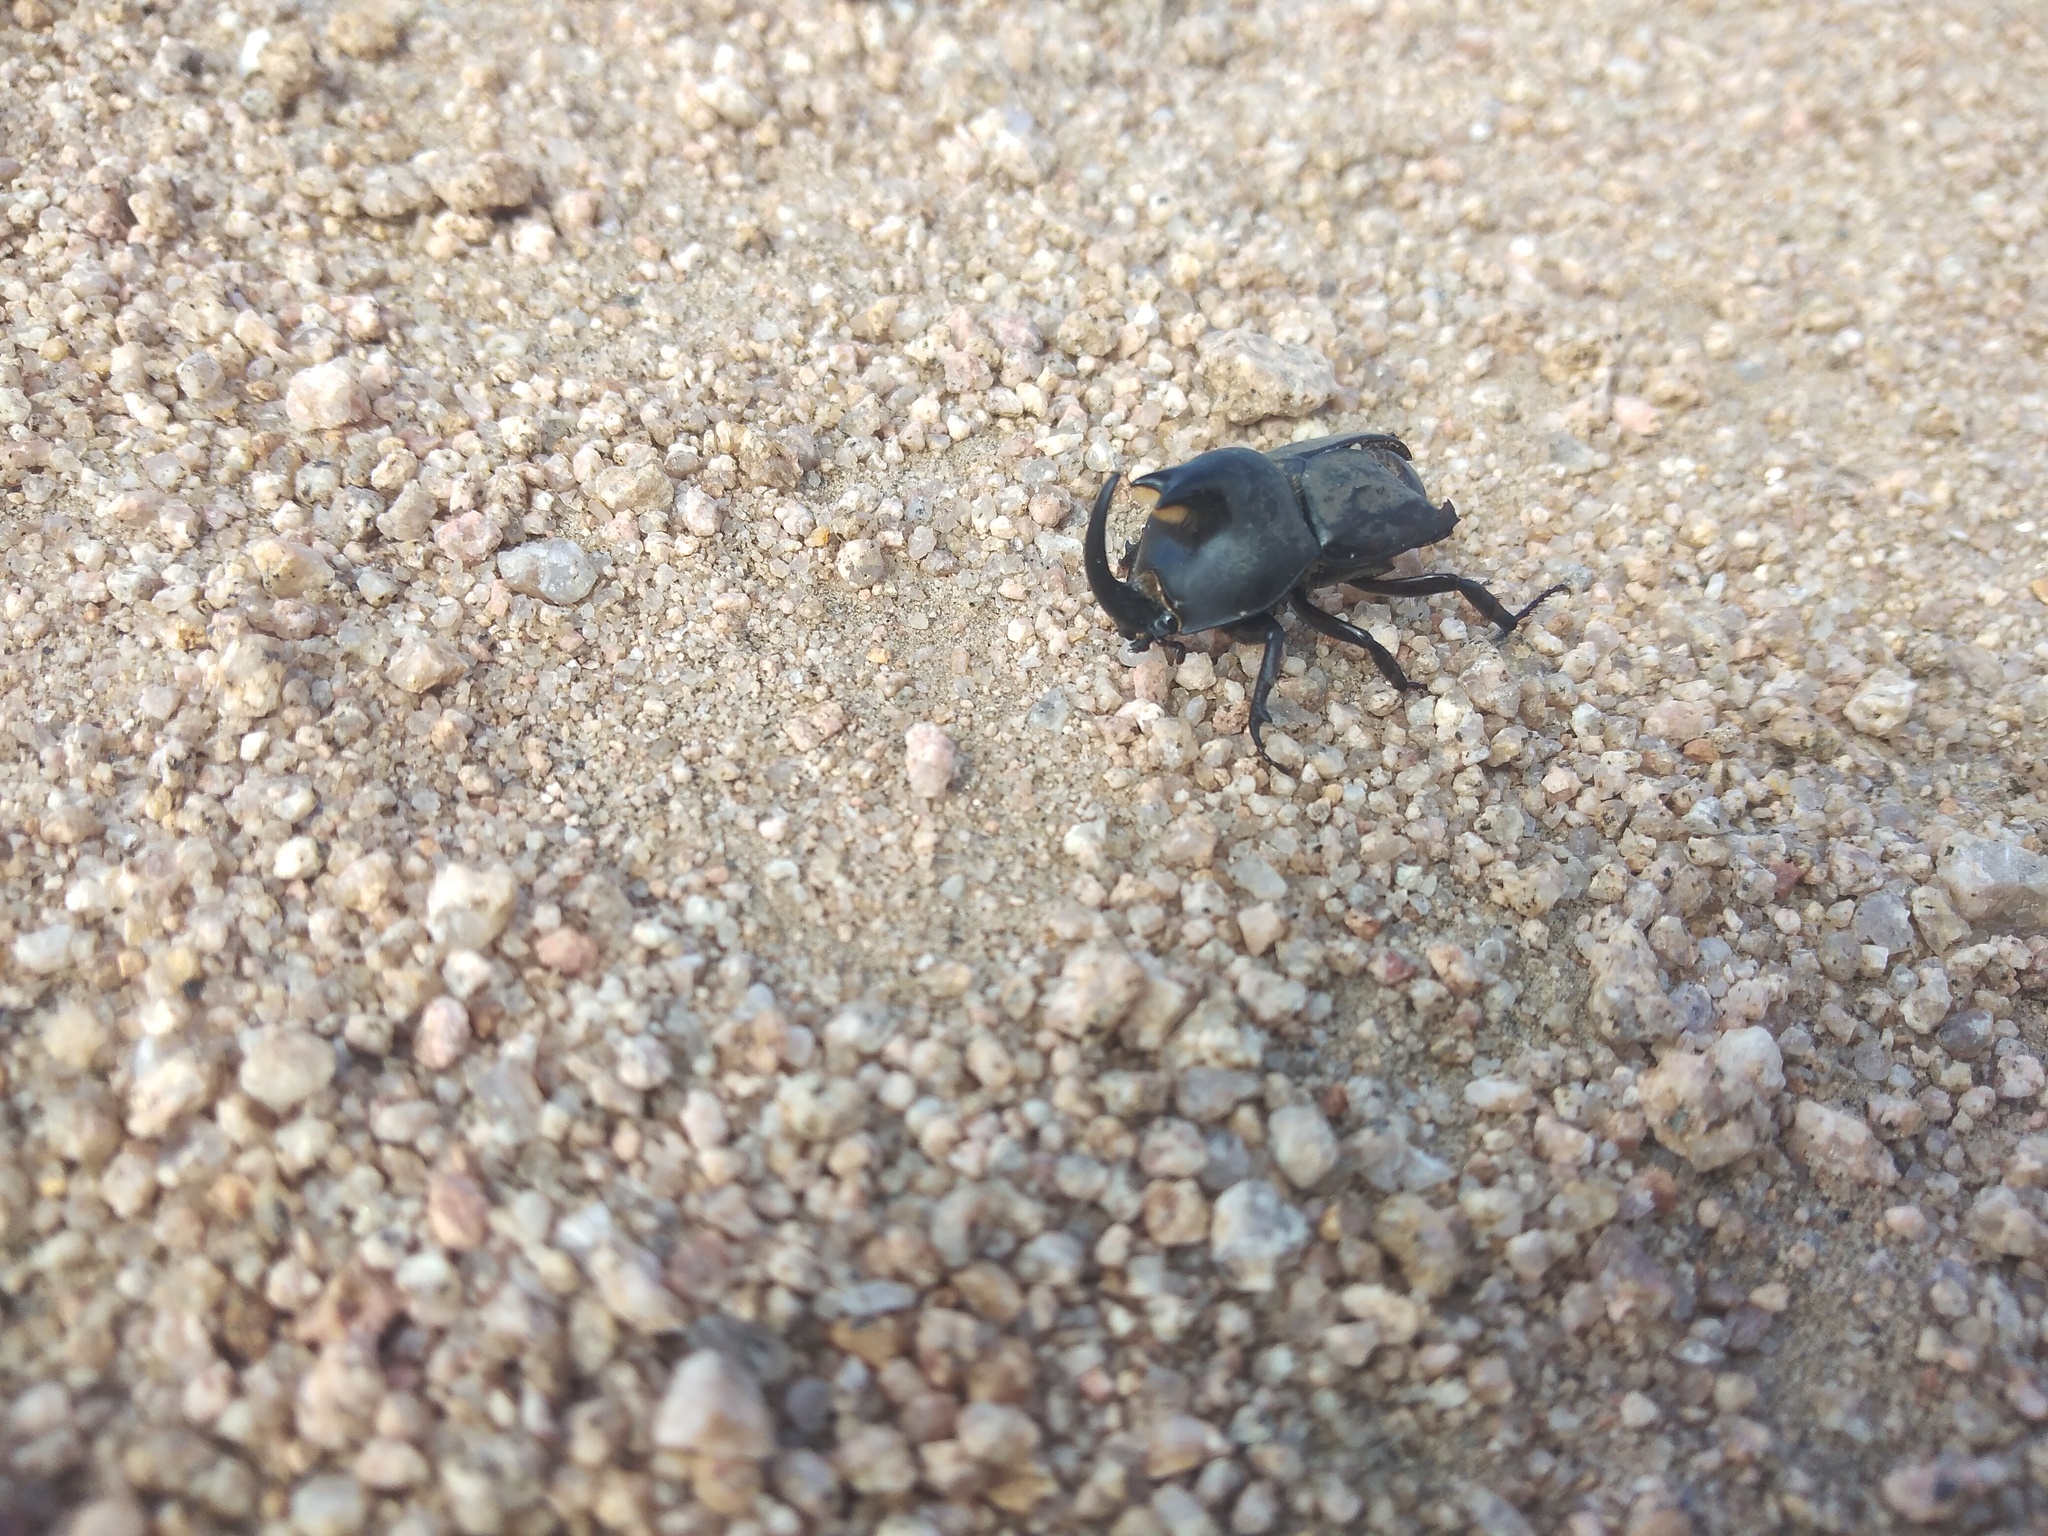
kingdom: Animalia
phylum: Arthropoda
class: Insecta
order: Coleoptera
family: Scarabaeidae
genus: Diloboderus
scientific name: Diloboderus abderus
